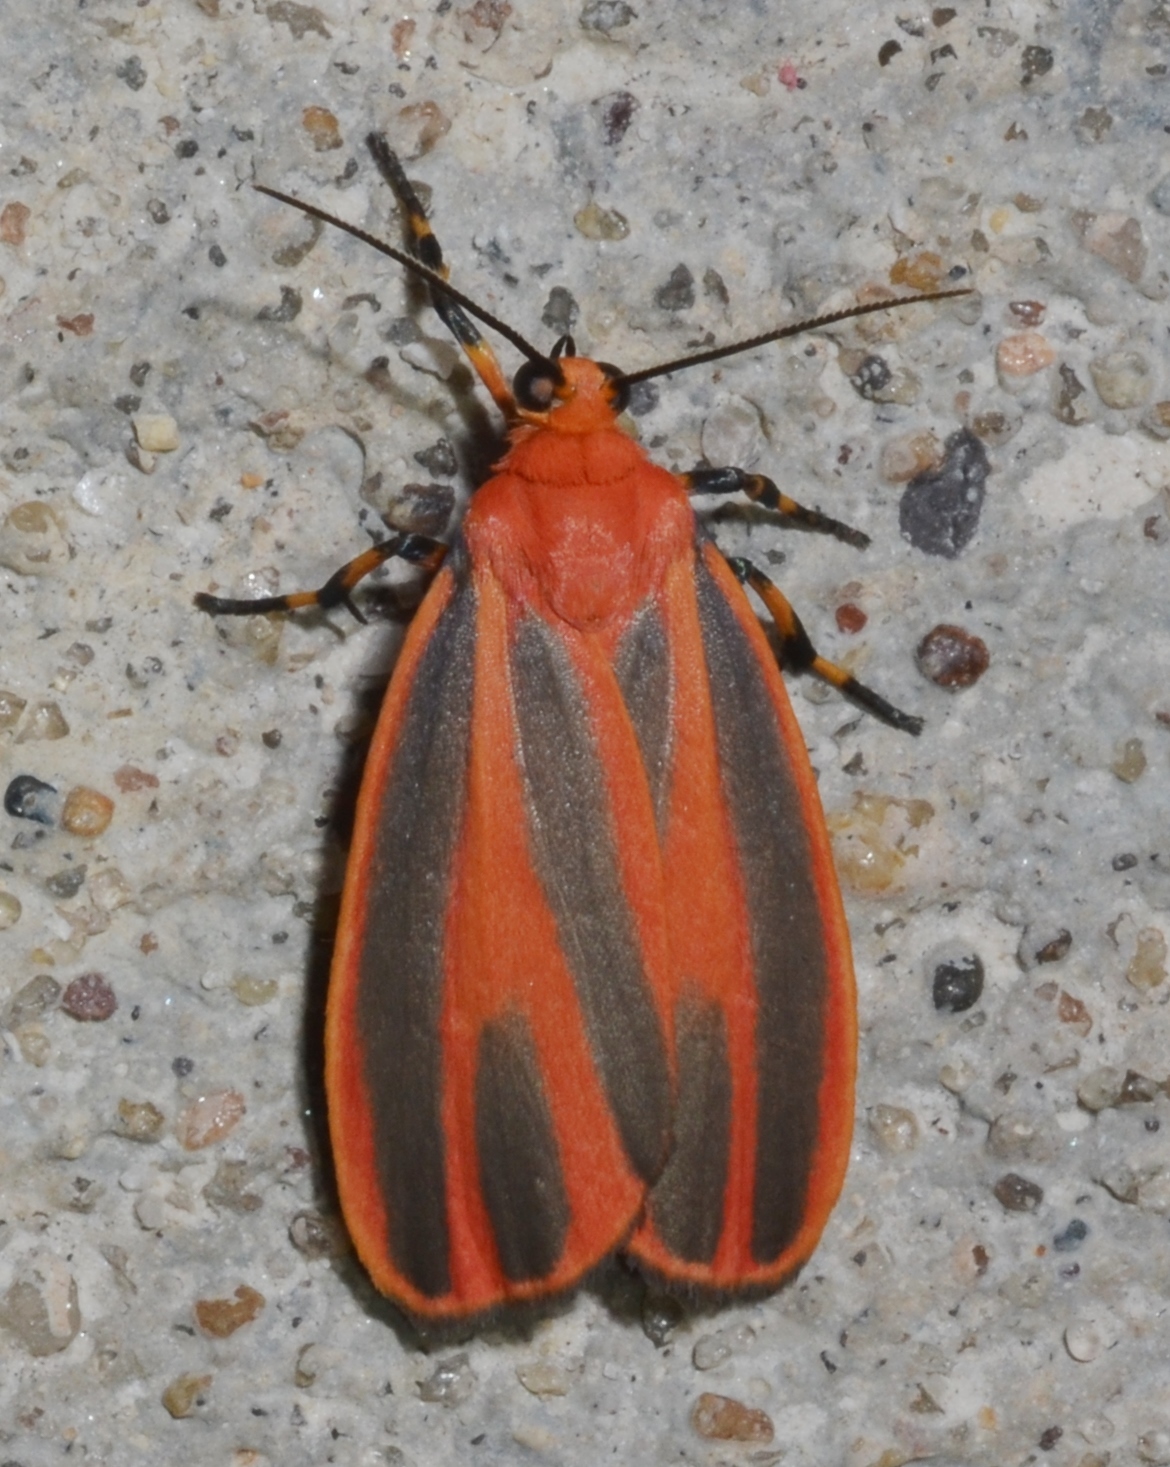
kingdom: Animalia
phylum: Arthropoda
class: Insecta
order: Lepidoptera
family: Erebidae
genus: Hypoprepia
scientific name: Hypoprepia miniata
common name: Scarlet-winged lichen moth
